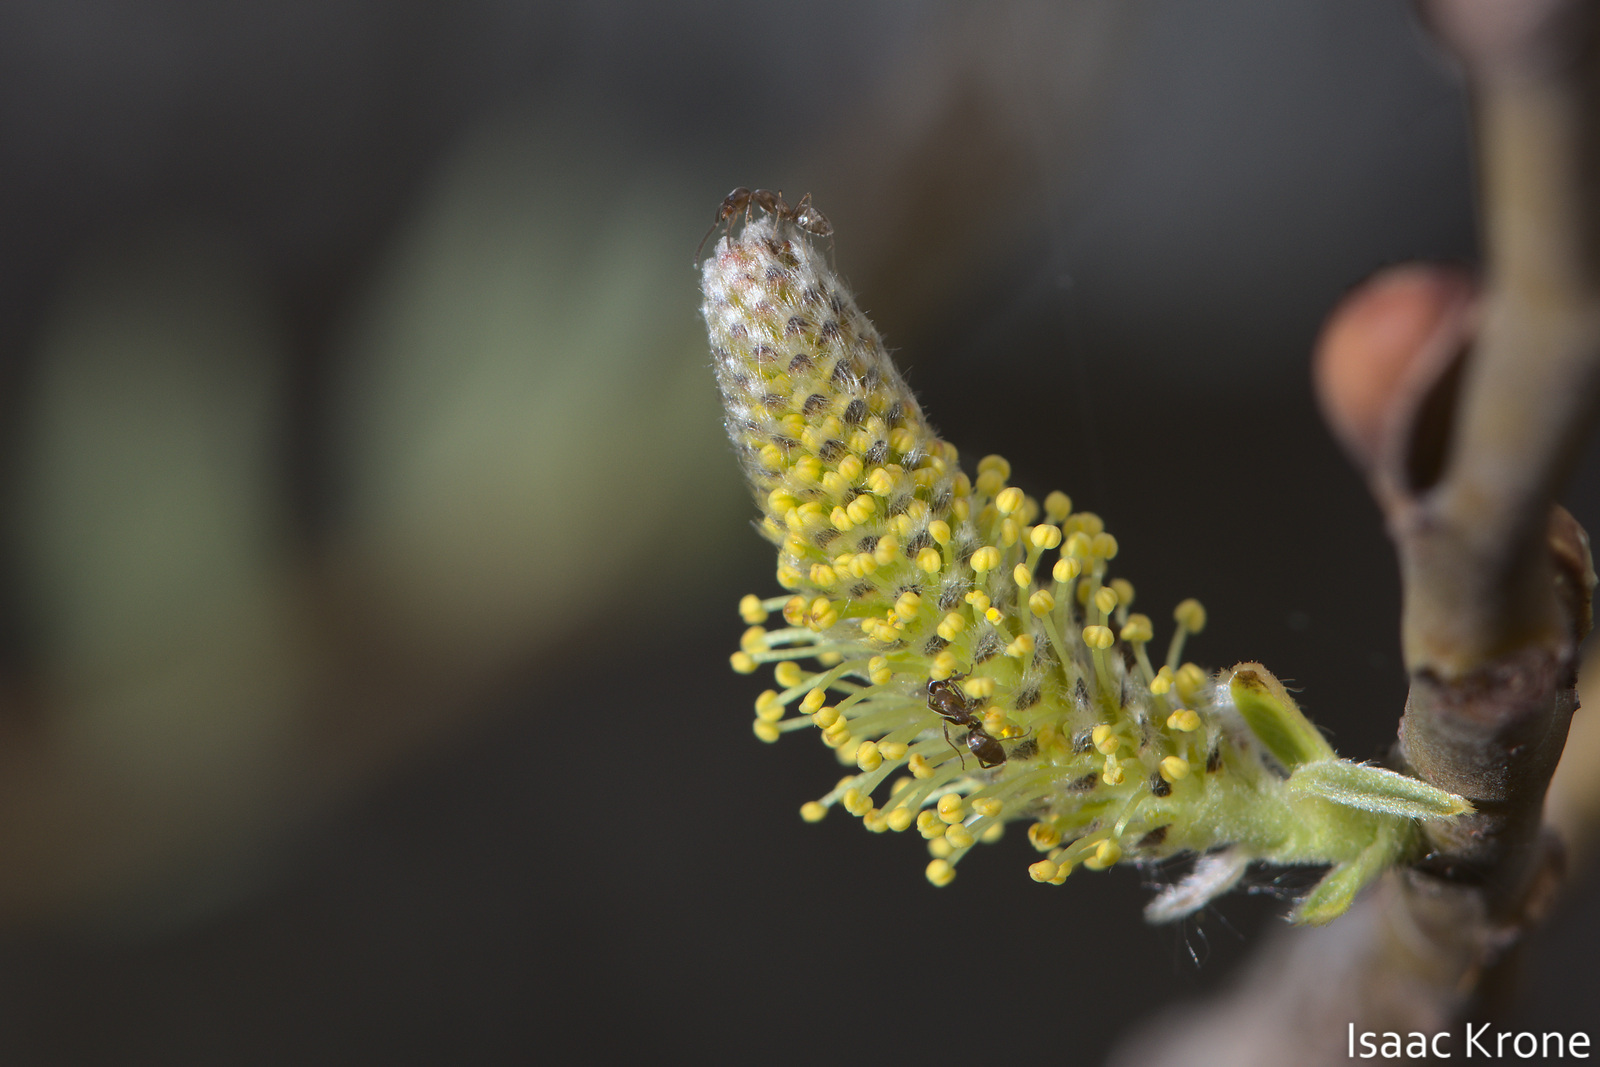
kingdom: Animalia
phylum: Arthropoda
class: Insecta
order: Hymenoptera
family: Formicidae
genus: Linepithema
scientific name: Linepithema humile
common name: Argentine ant
